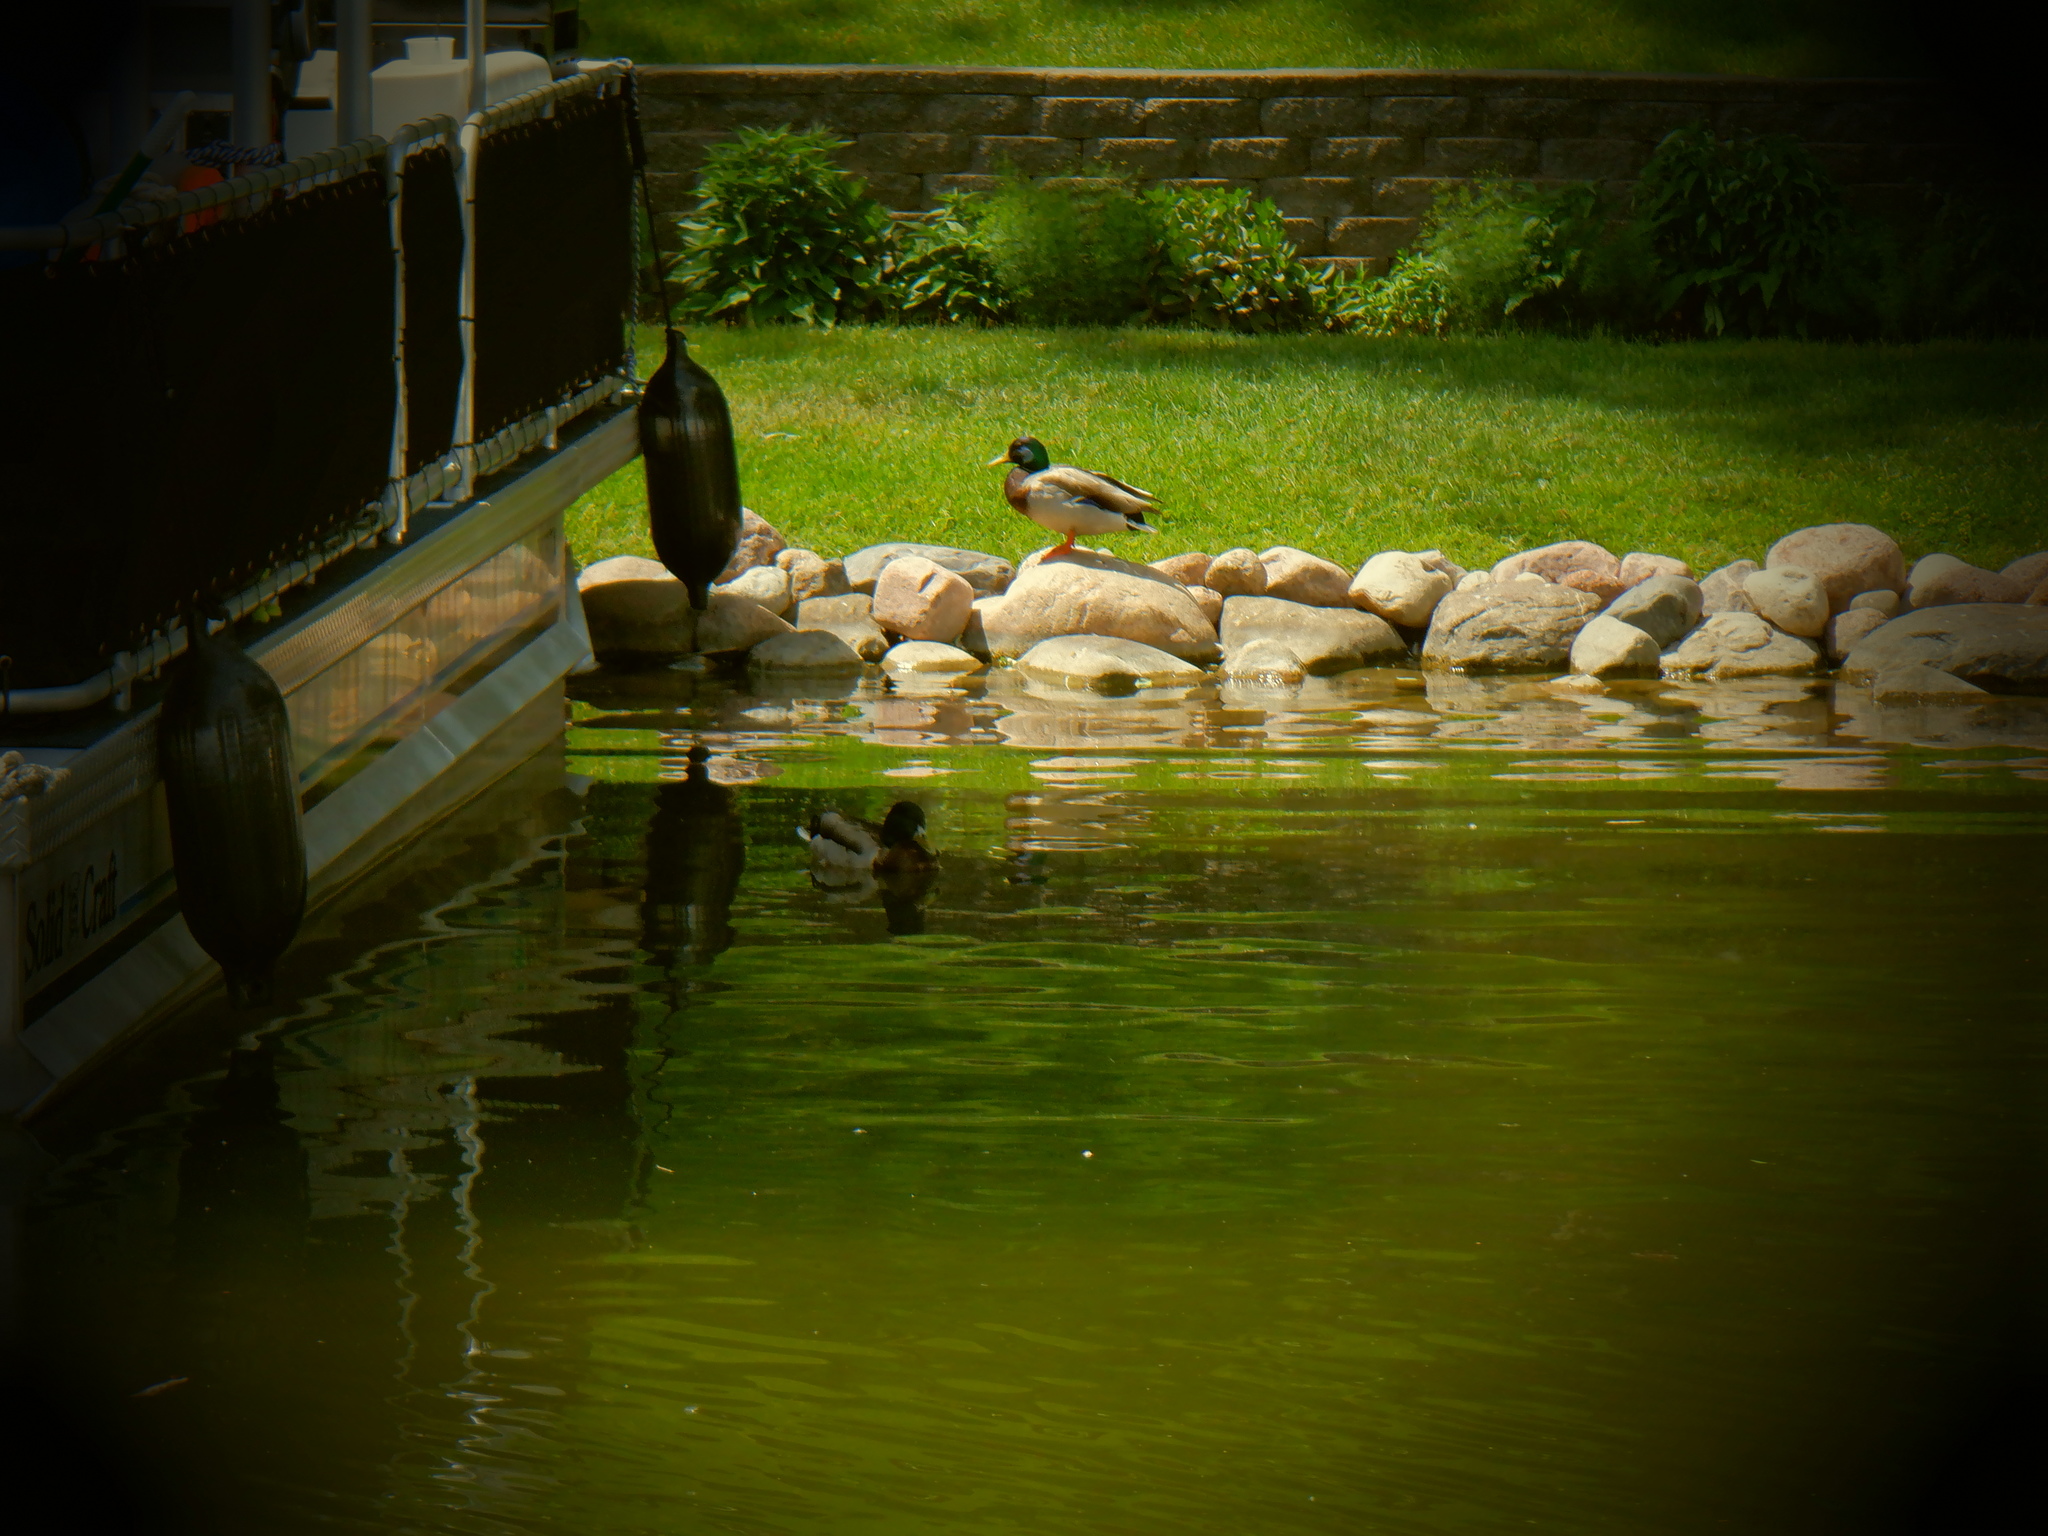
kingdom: Animalia
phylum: Chordata
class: Aves
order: Anseriformes
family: Anatidae
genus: Anas
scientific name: Anas platyrhynchos
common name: Mallard
